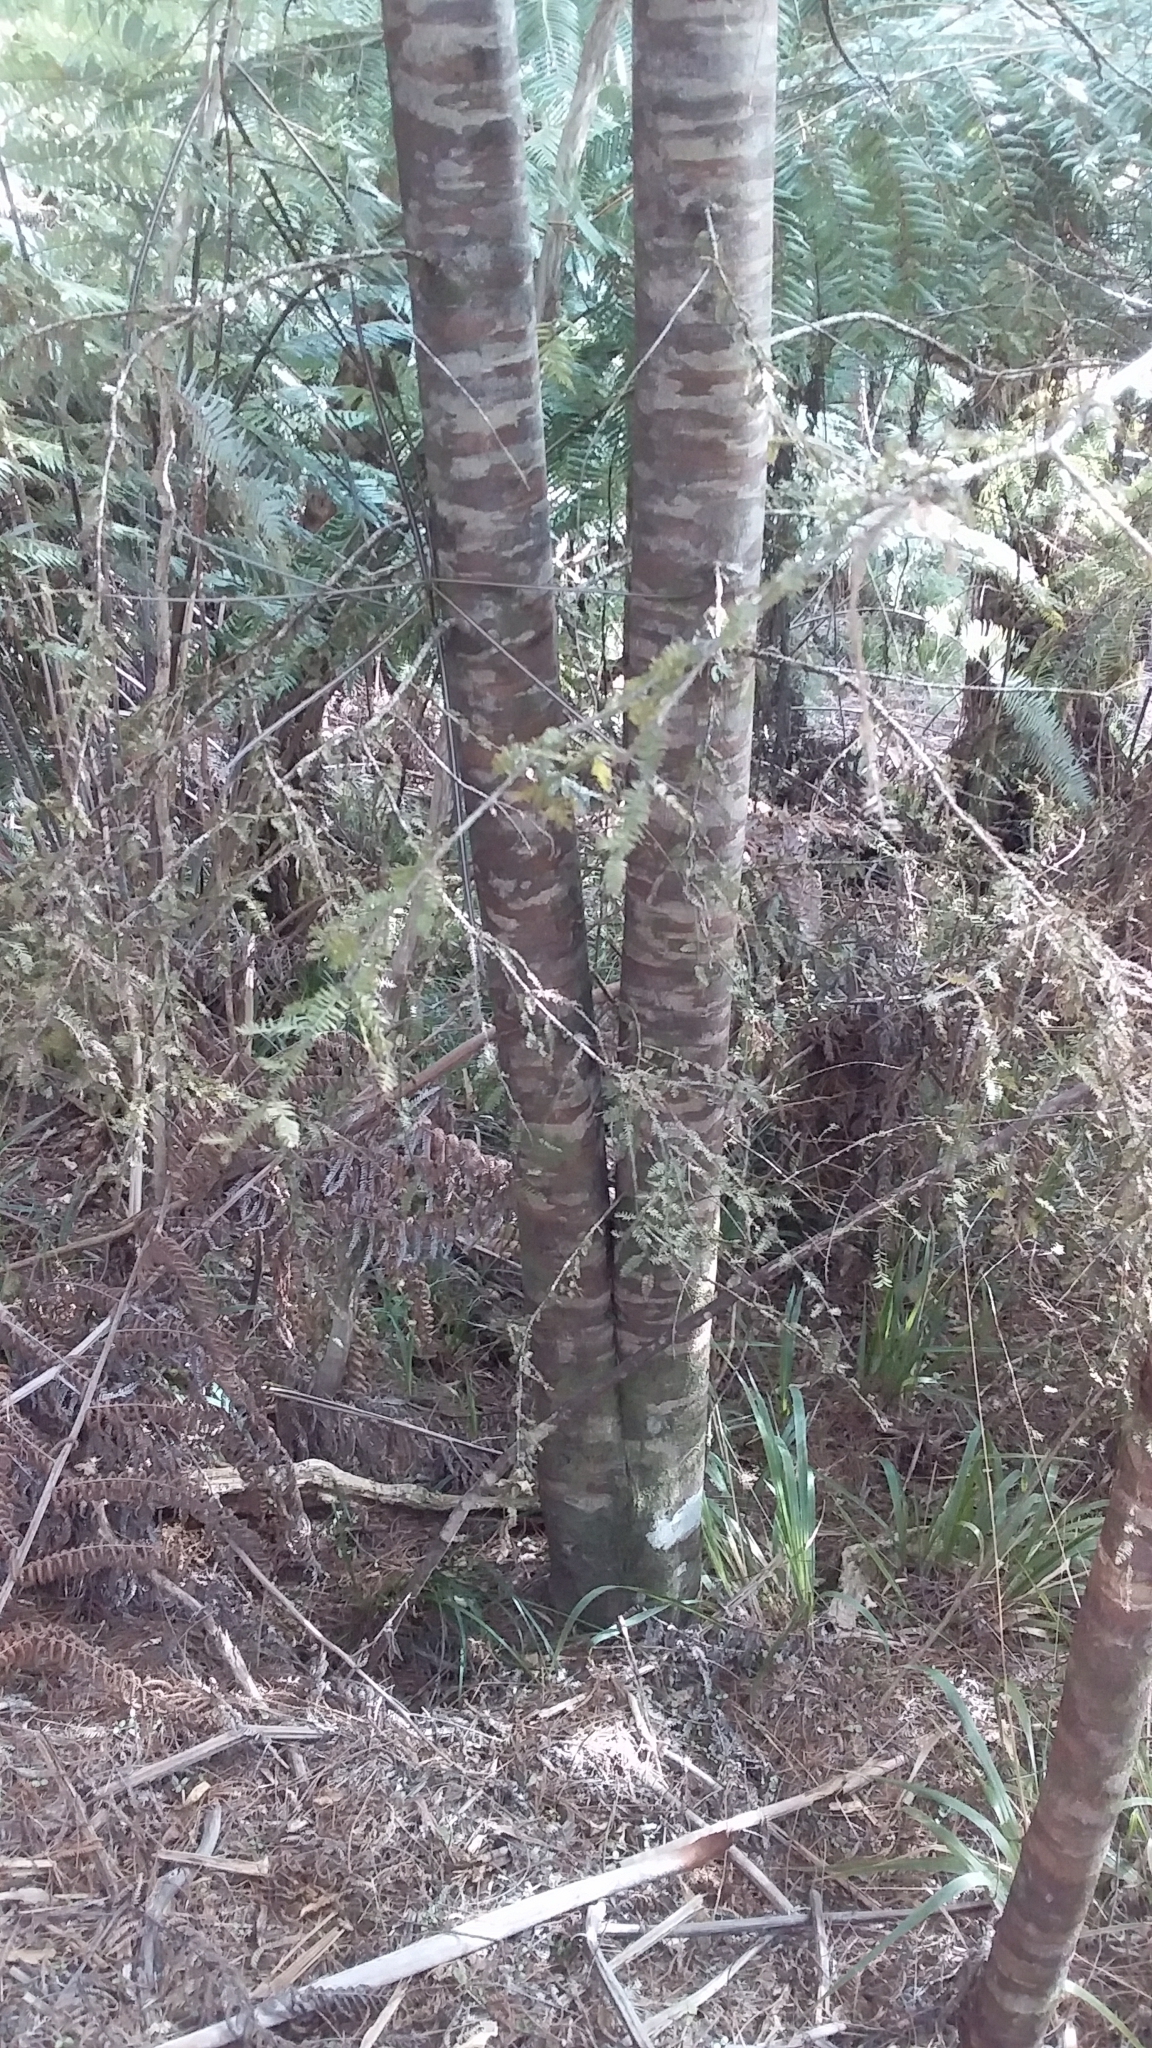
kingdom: Plantae
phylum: Tracheophyta
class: Pinopsida
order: Pinales
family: Podocarpaceae
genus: Dacrycarpus
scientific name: Dacrycarpus dacrydioides
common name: White pine
